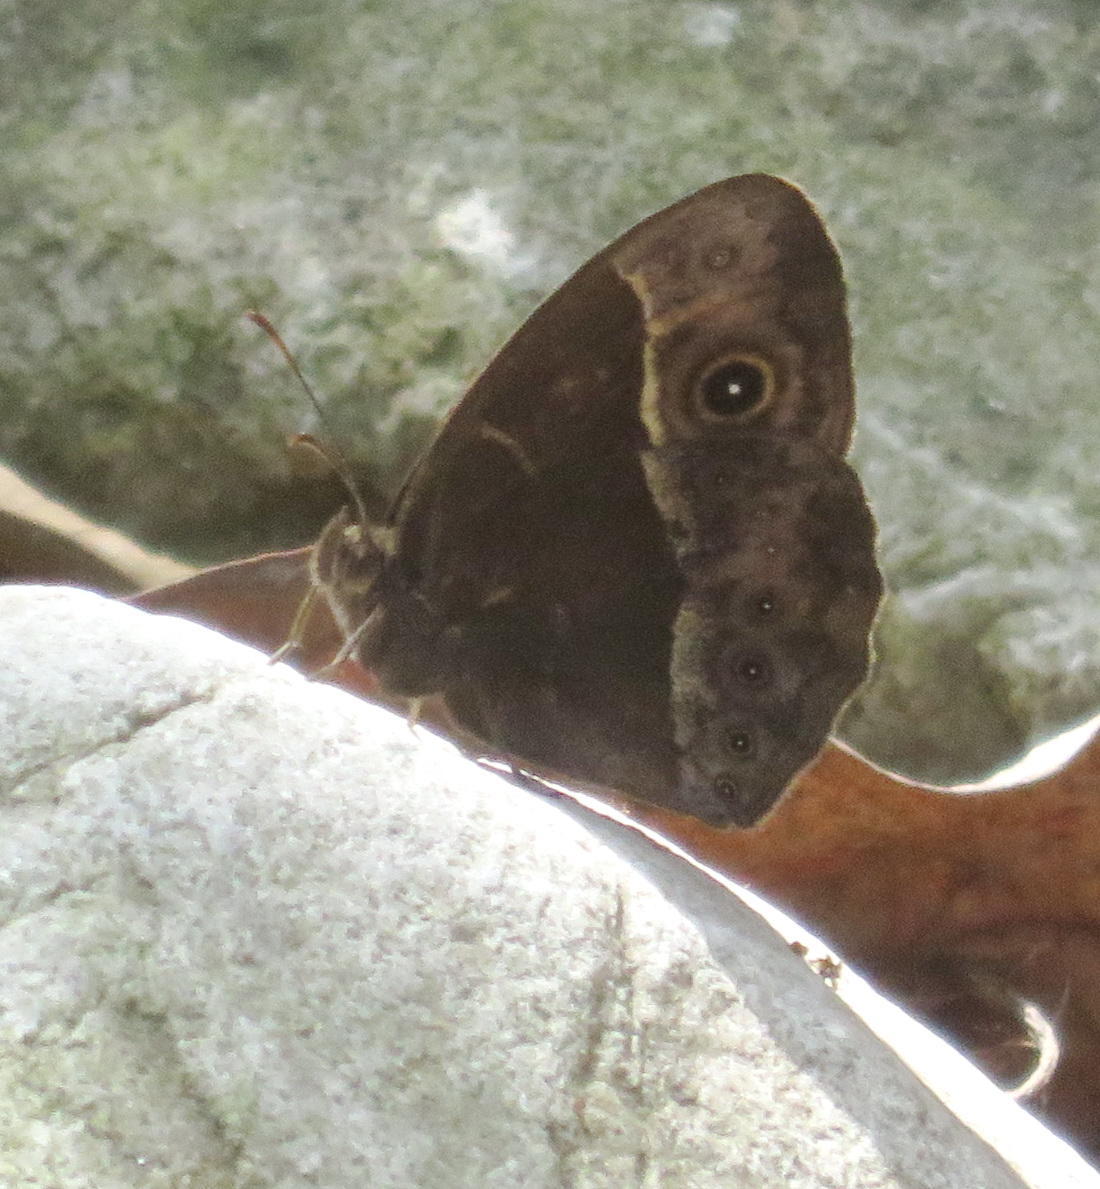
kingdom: Animalia
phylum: Arthropoda
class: Insecta
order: Lepidoptera
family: Nymphalidae
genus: Mycalesis
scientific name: Mycalesis rhacotis
